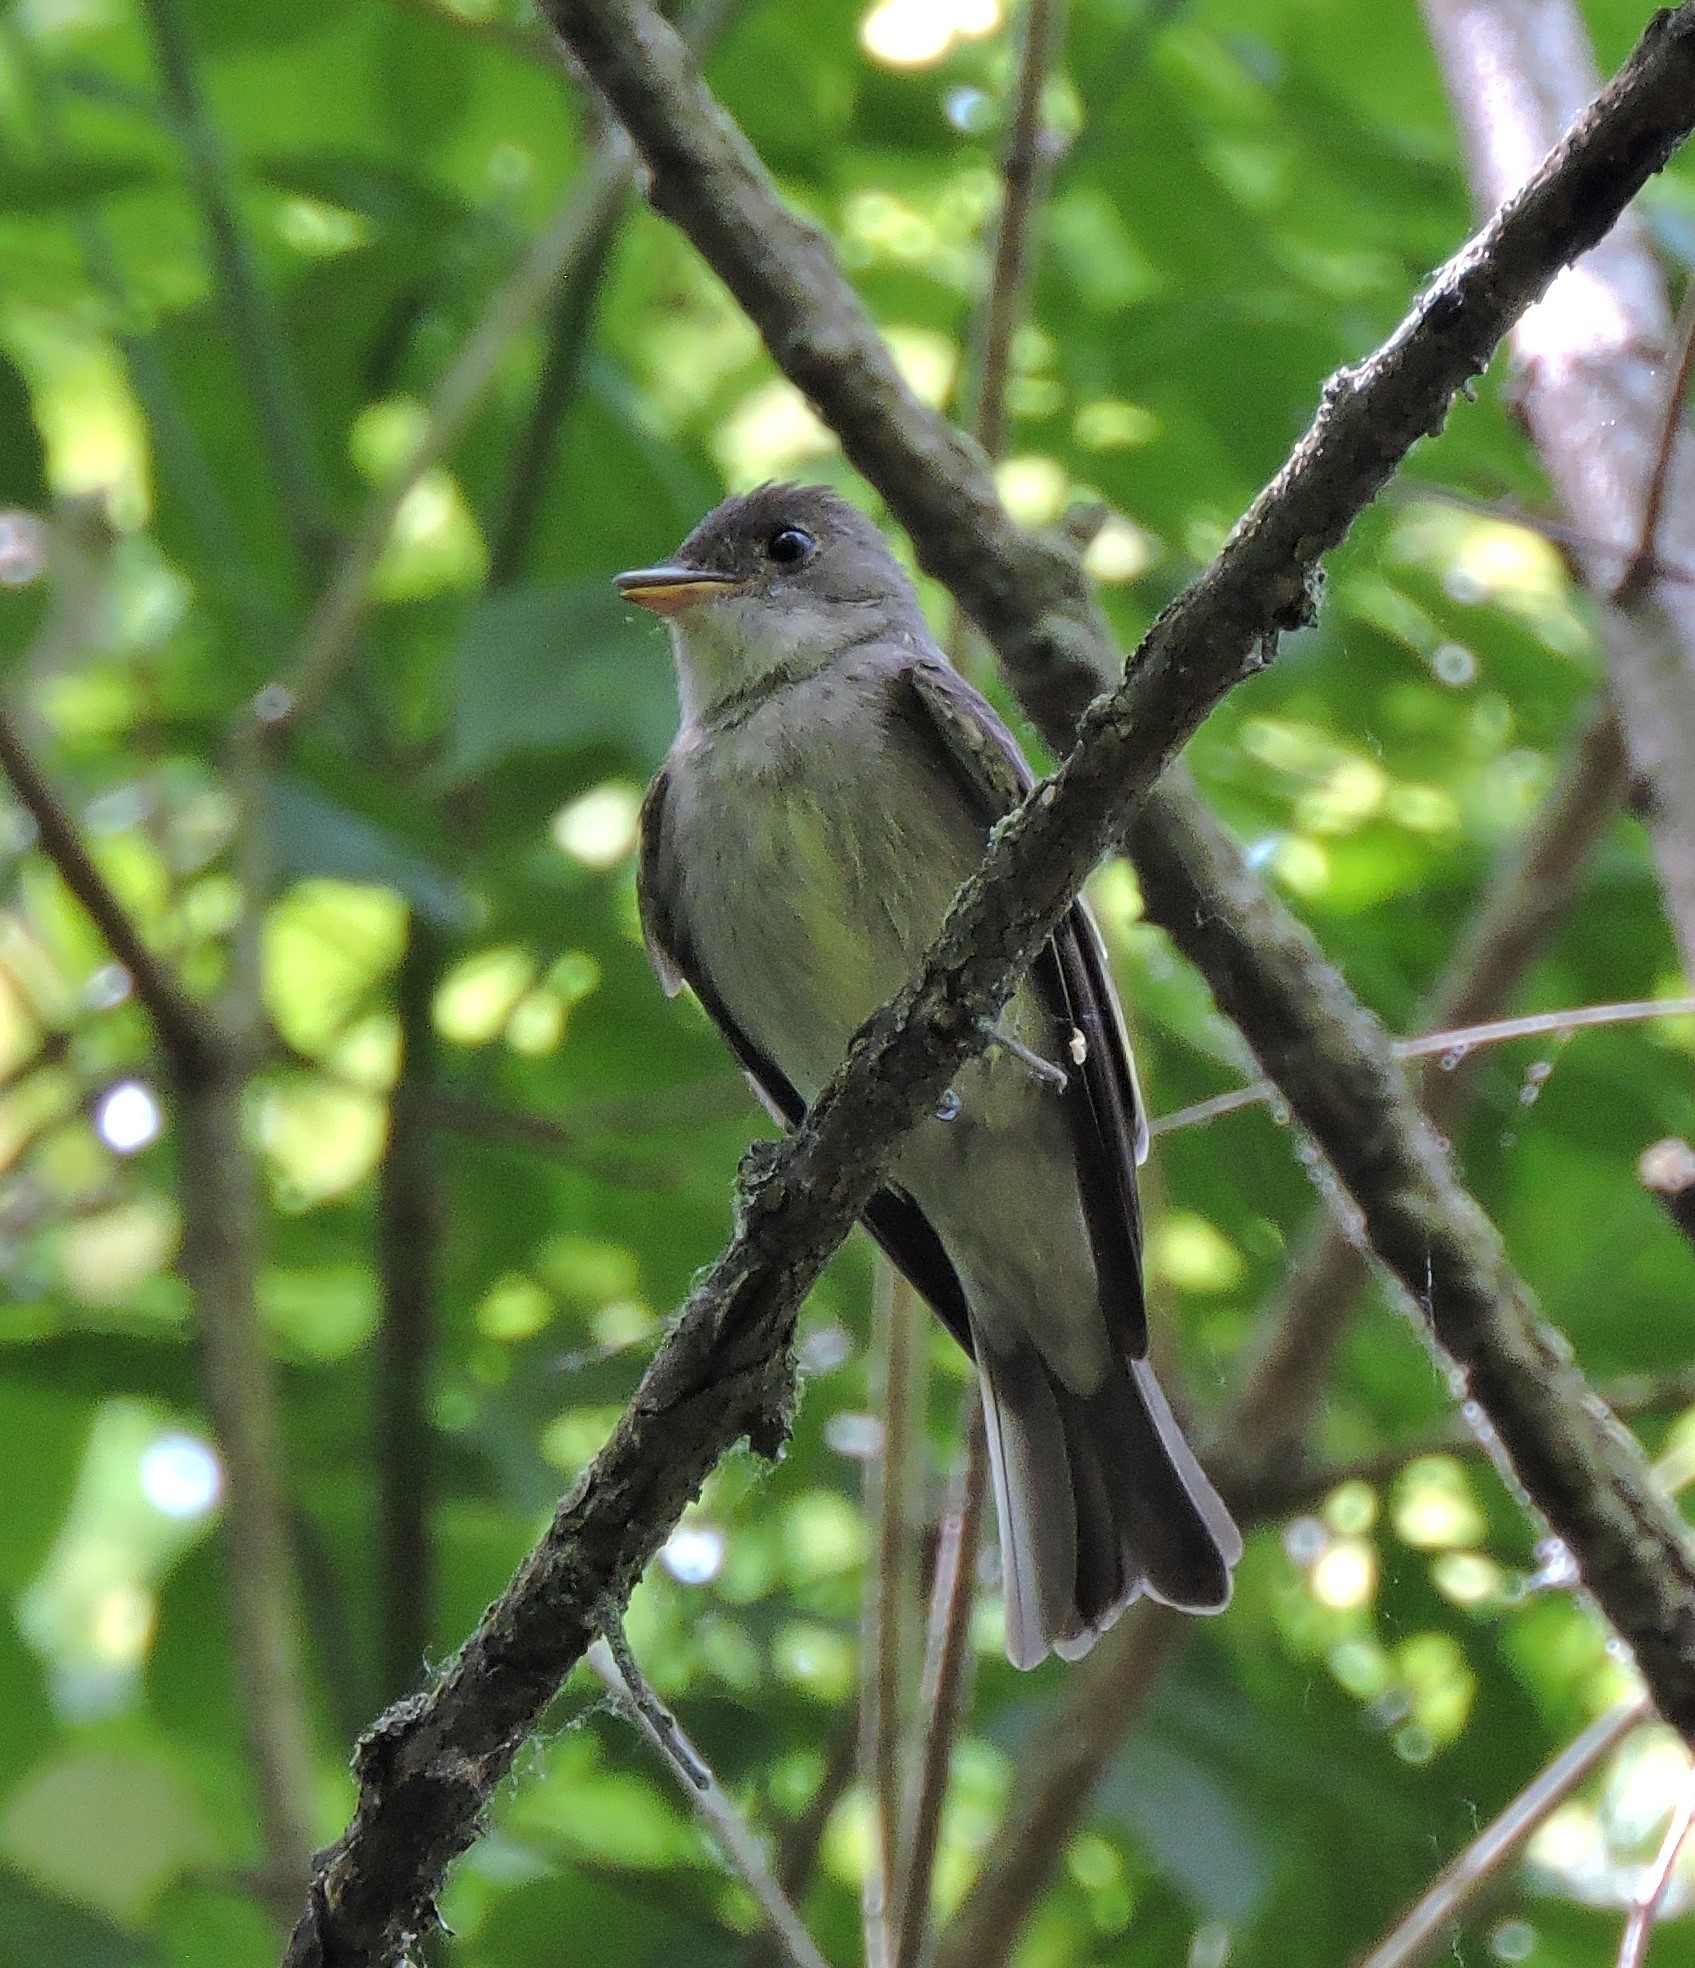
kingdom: Animalia
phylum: Chordata
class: Aves
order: Passeriformes
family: Tyrannidae
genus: Contopus
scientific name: Contopus virens
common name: Eastern wood-pewee
